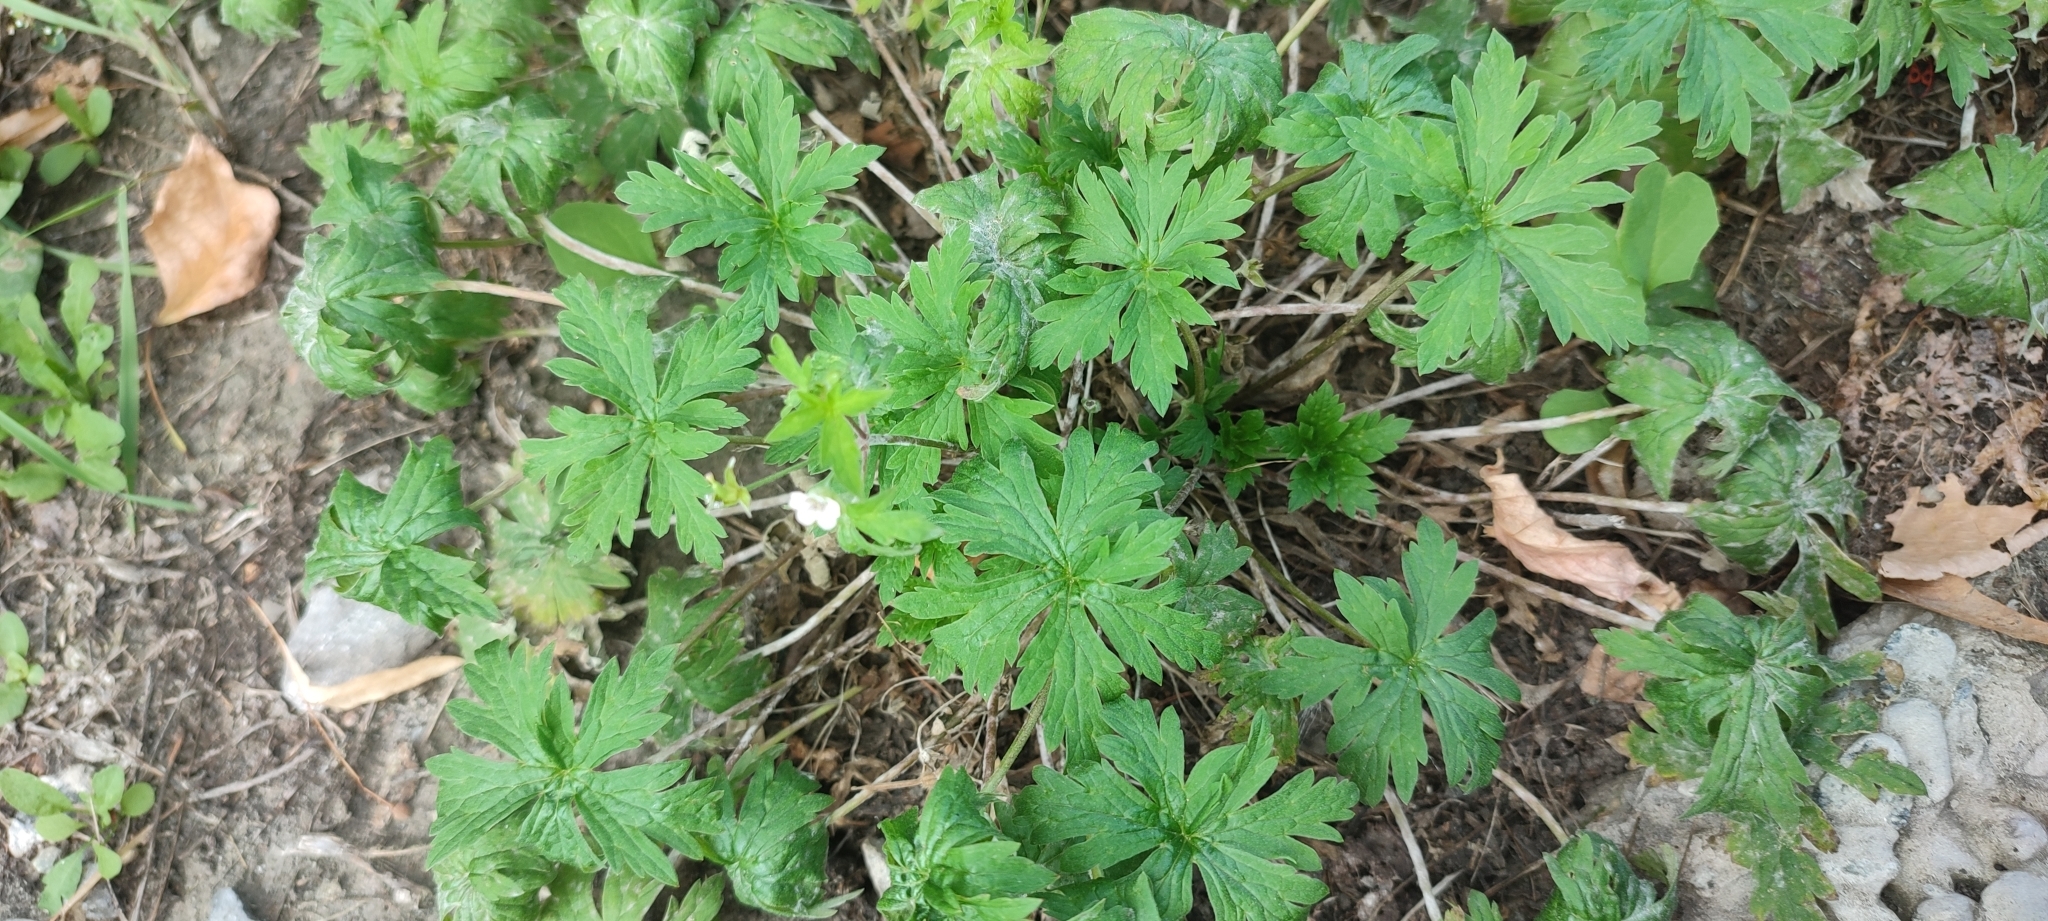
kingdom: Plantae
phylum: Tracheophyta
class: Magnoliopsida
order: Geraniales
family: Geraniaceae
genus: Geranium
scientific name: Geranium sibiricum
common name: Siberian crane's-bill
